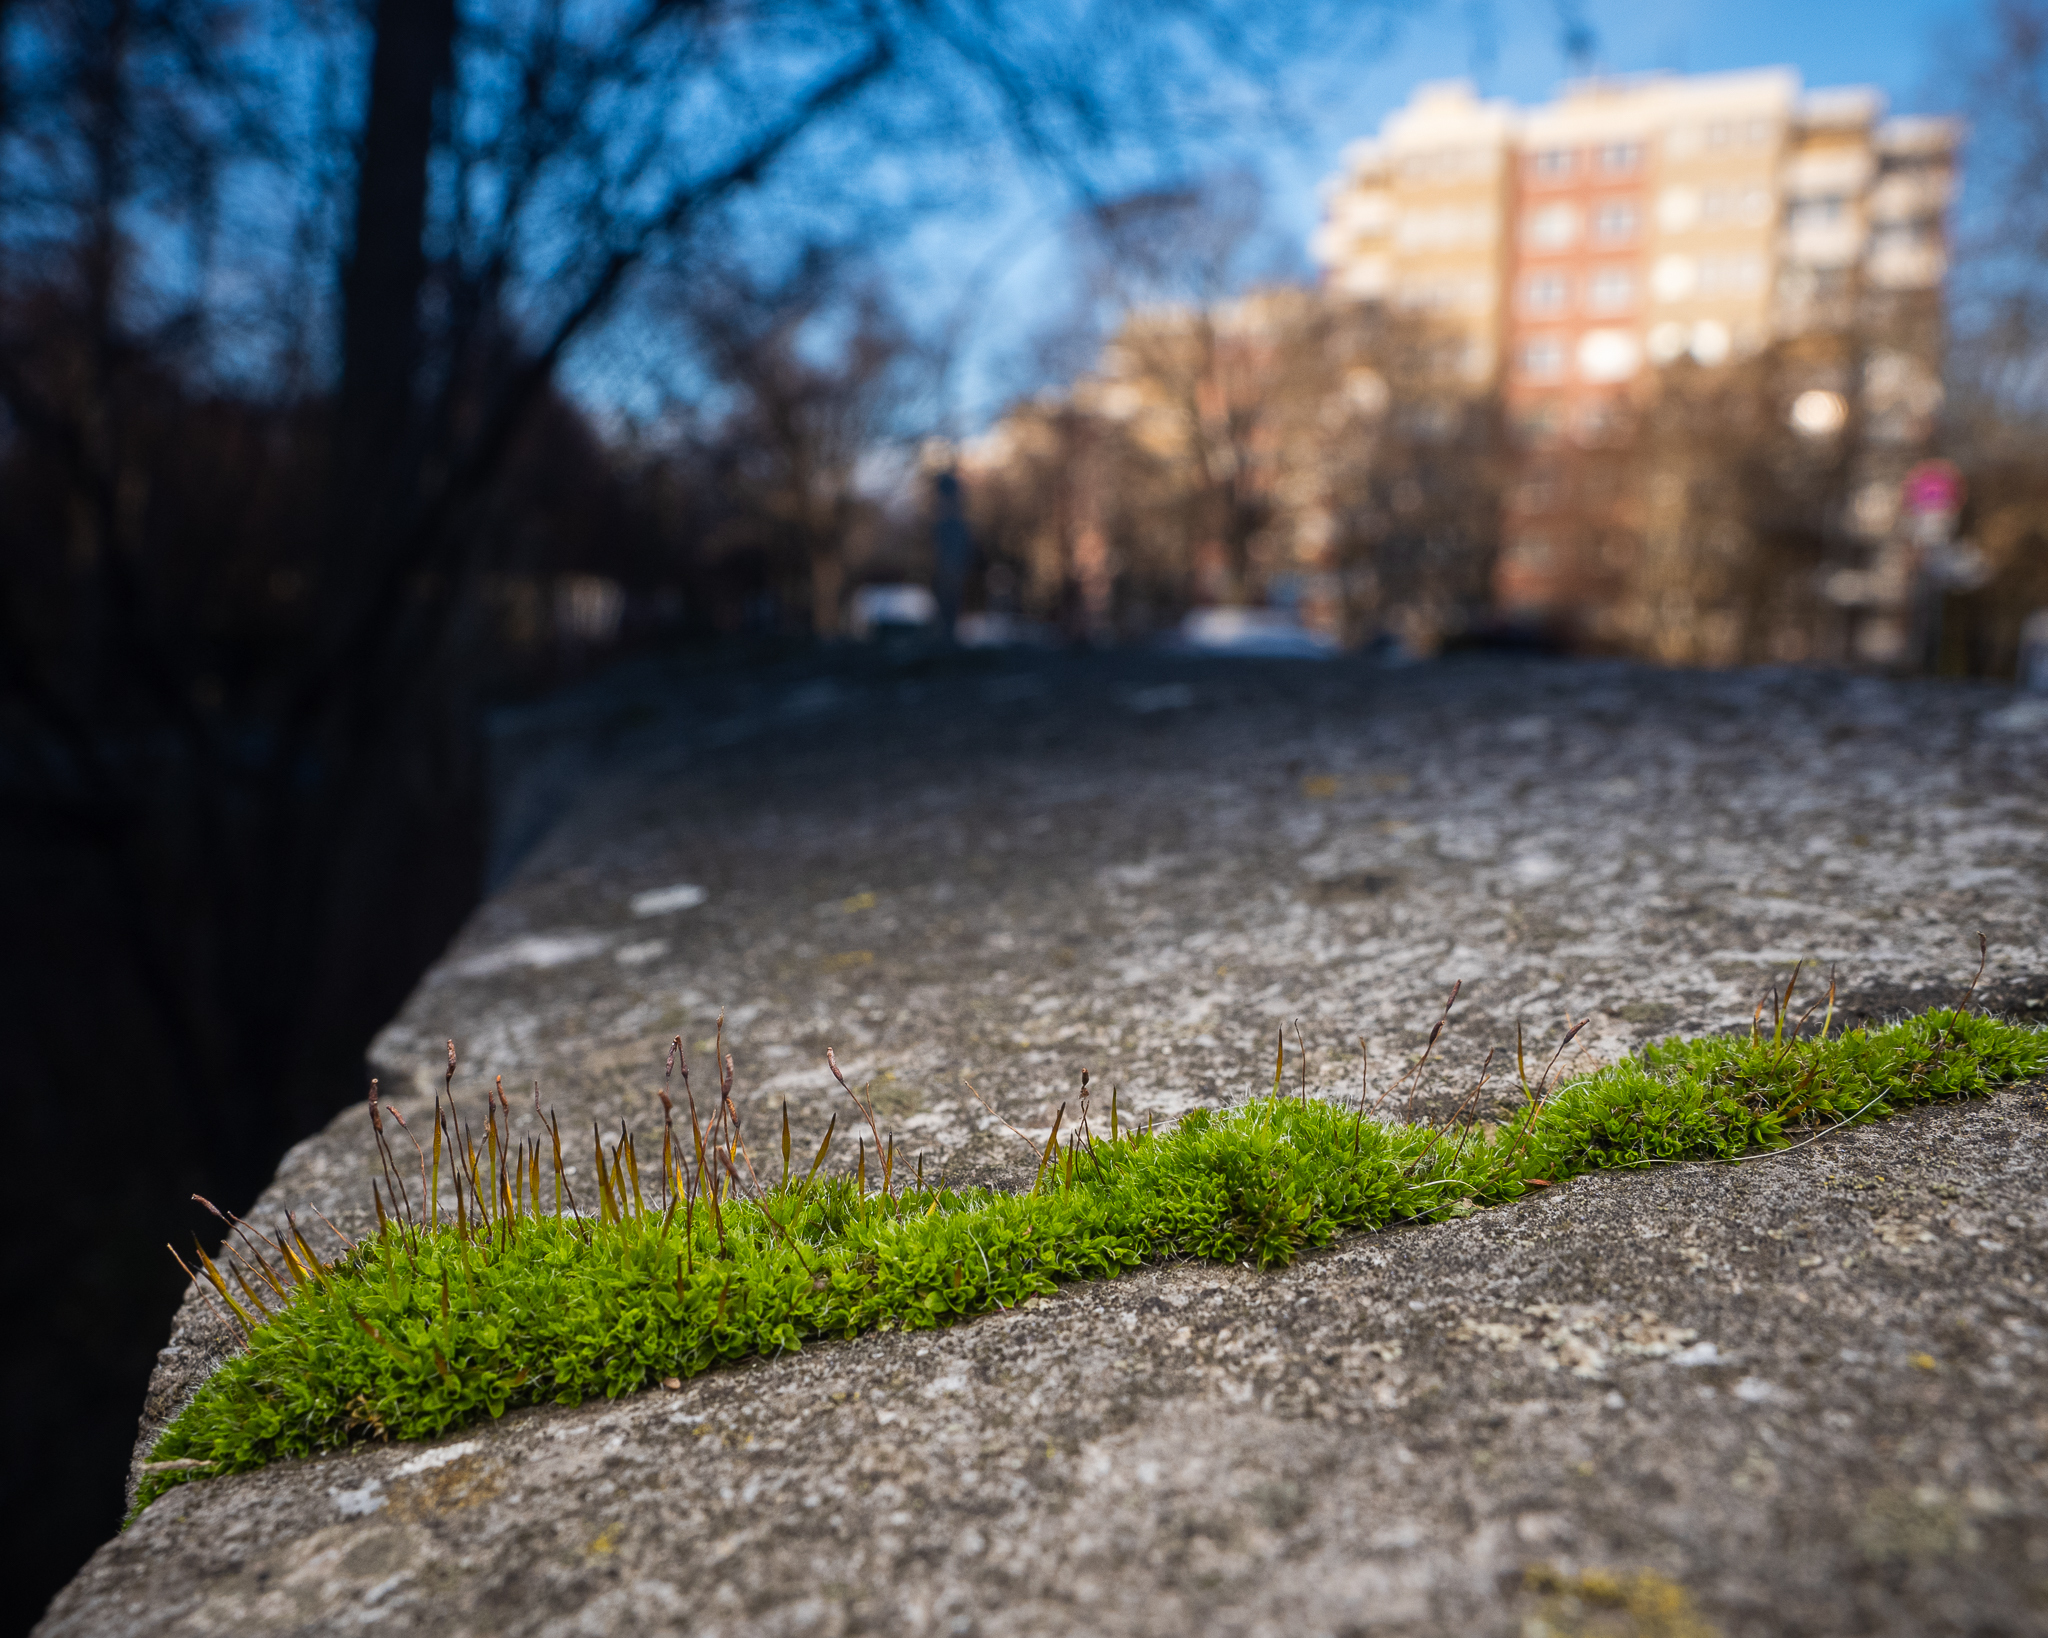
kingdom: Plantae
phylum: Bryophyta
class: Bryopsida
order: Pottiales
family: Pottiaceae
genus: Tortula
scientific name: Tortula muralis
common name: Wall screw-moss
